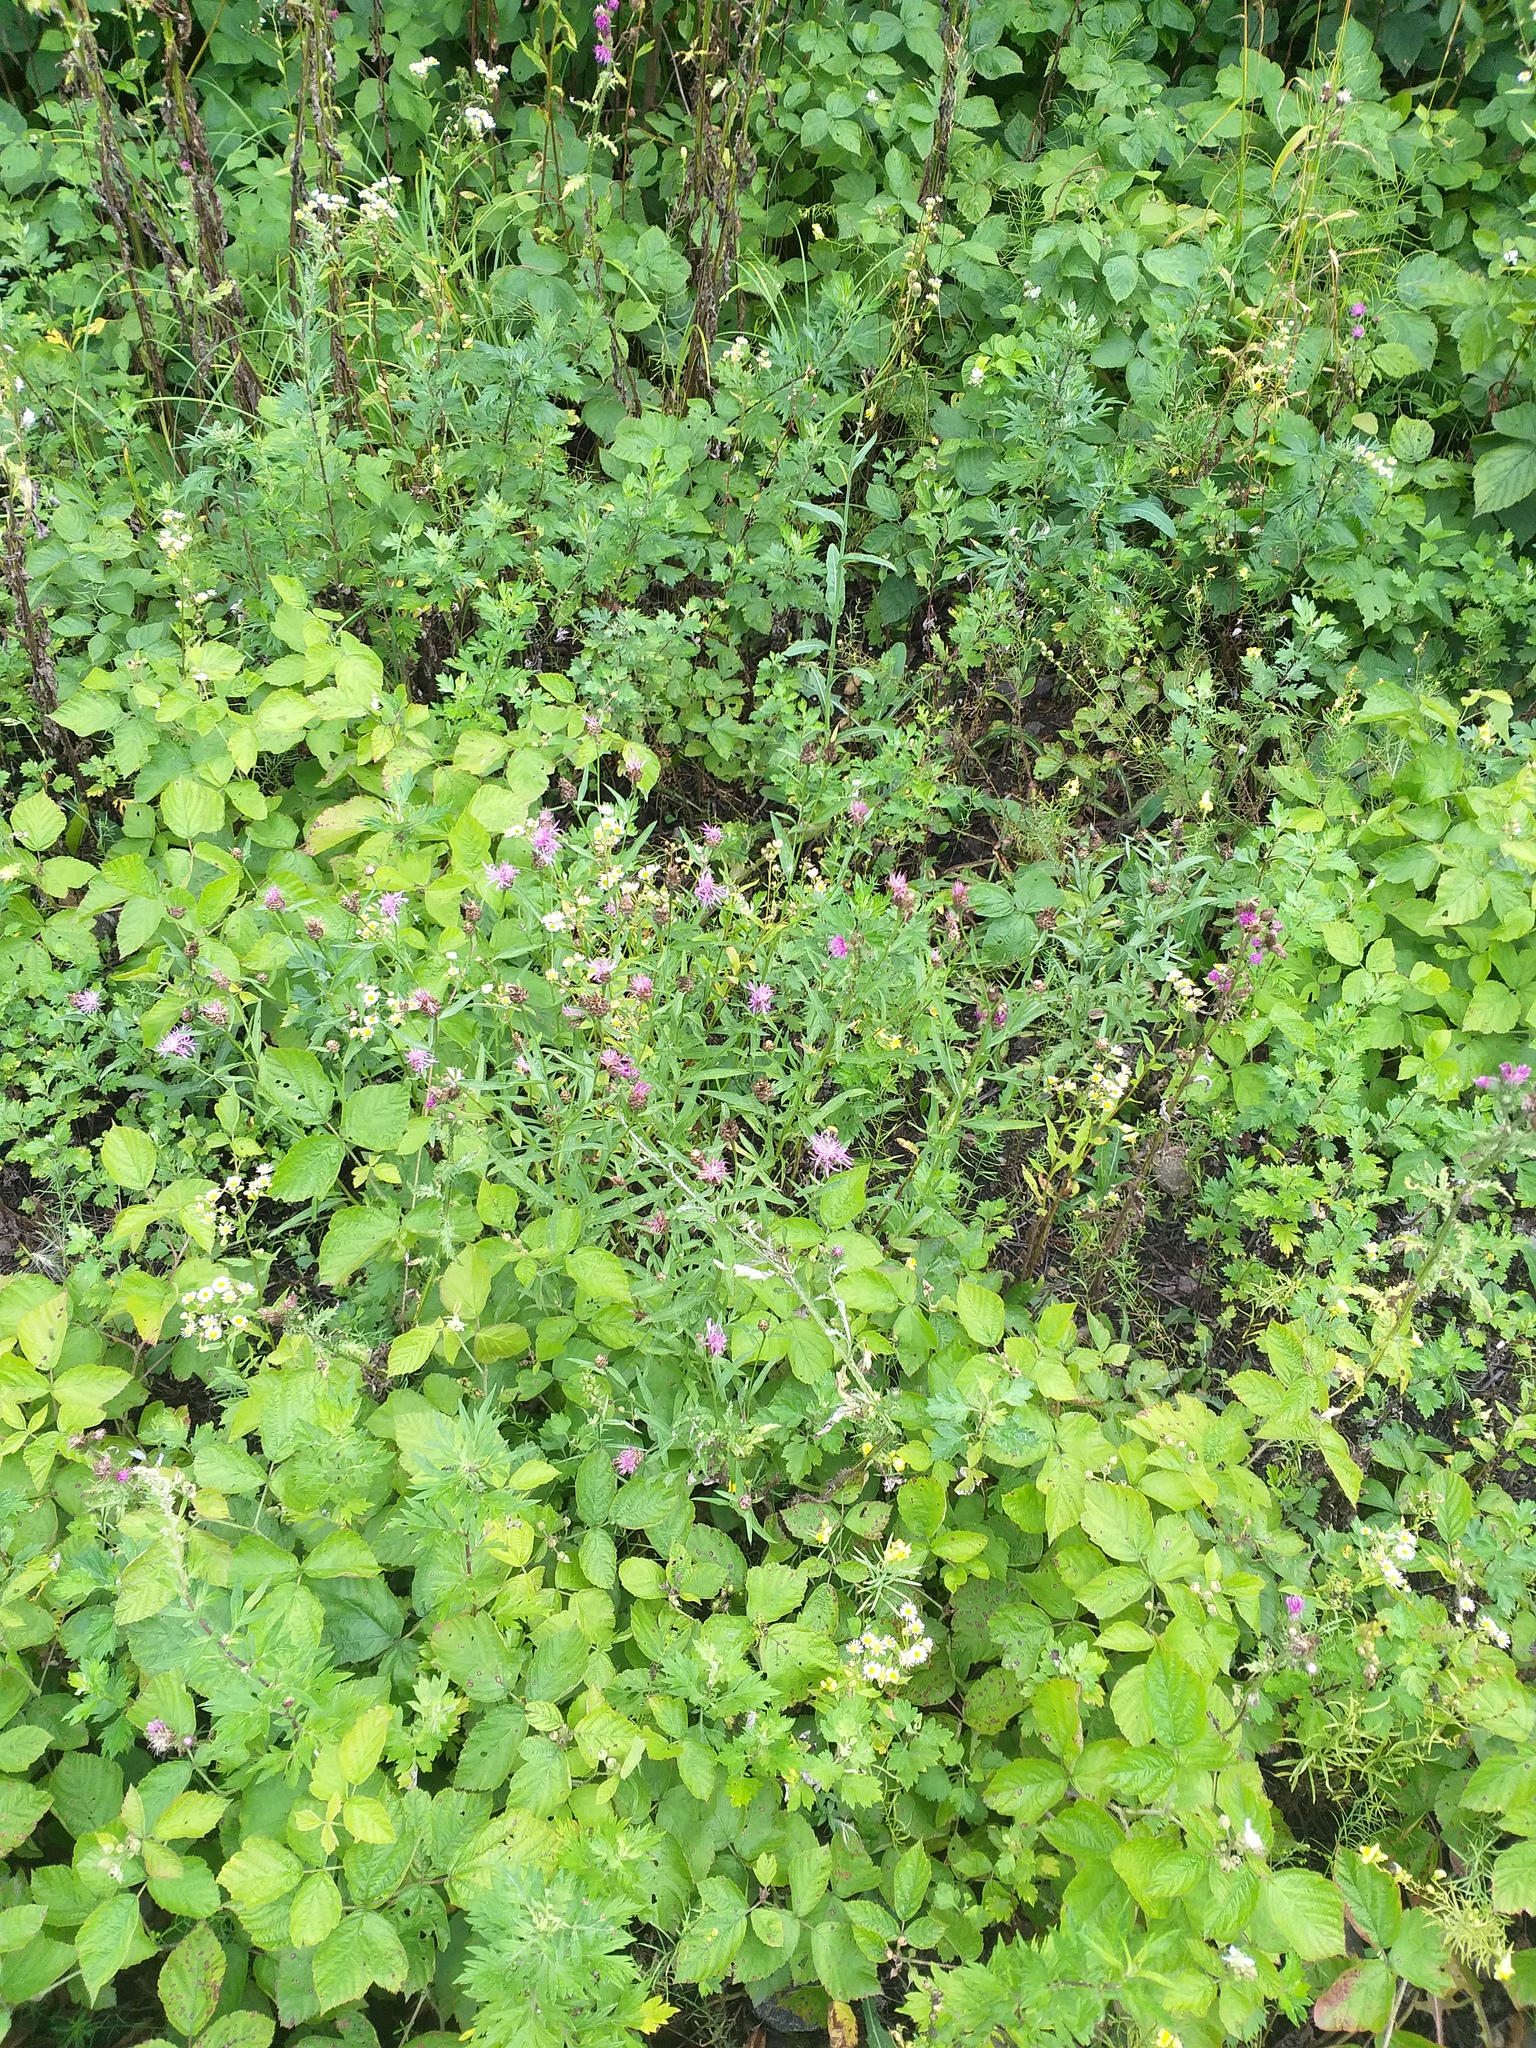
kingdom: Plantae
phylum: Tracheophyta
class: Magnoliopsida
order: Asterales
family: Asteraceae
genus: Centaurea
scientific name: Centaurea jacea
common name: Brown knapweed
